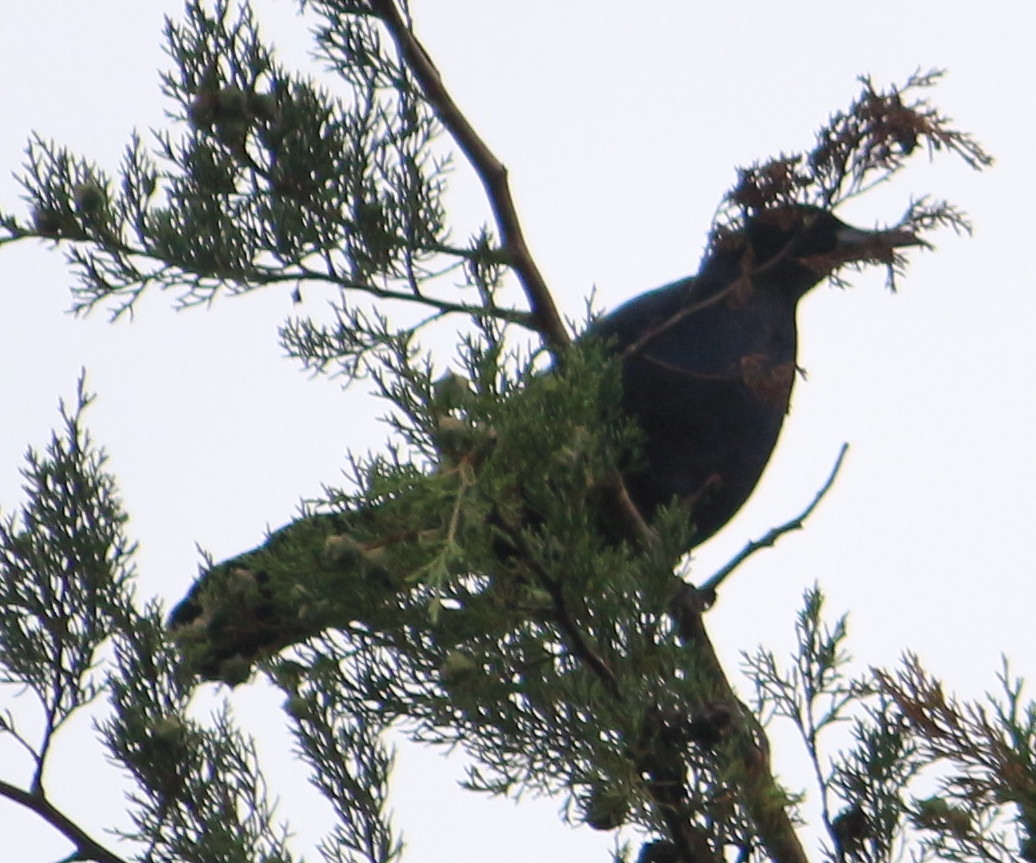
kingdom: Animalia
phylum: Chordata
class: Aves
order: Passeriformes
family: Icteridae
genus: Quiscalus
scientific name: Quiscalus mexicanus
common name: Great-tailed grackle
